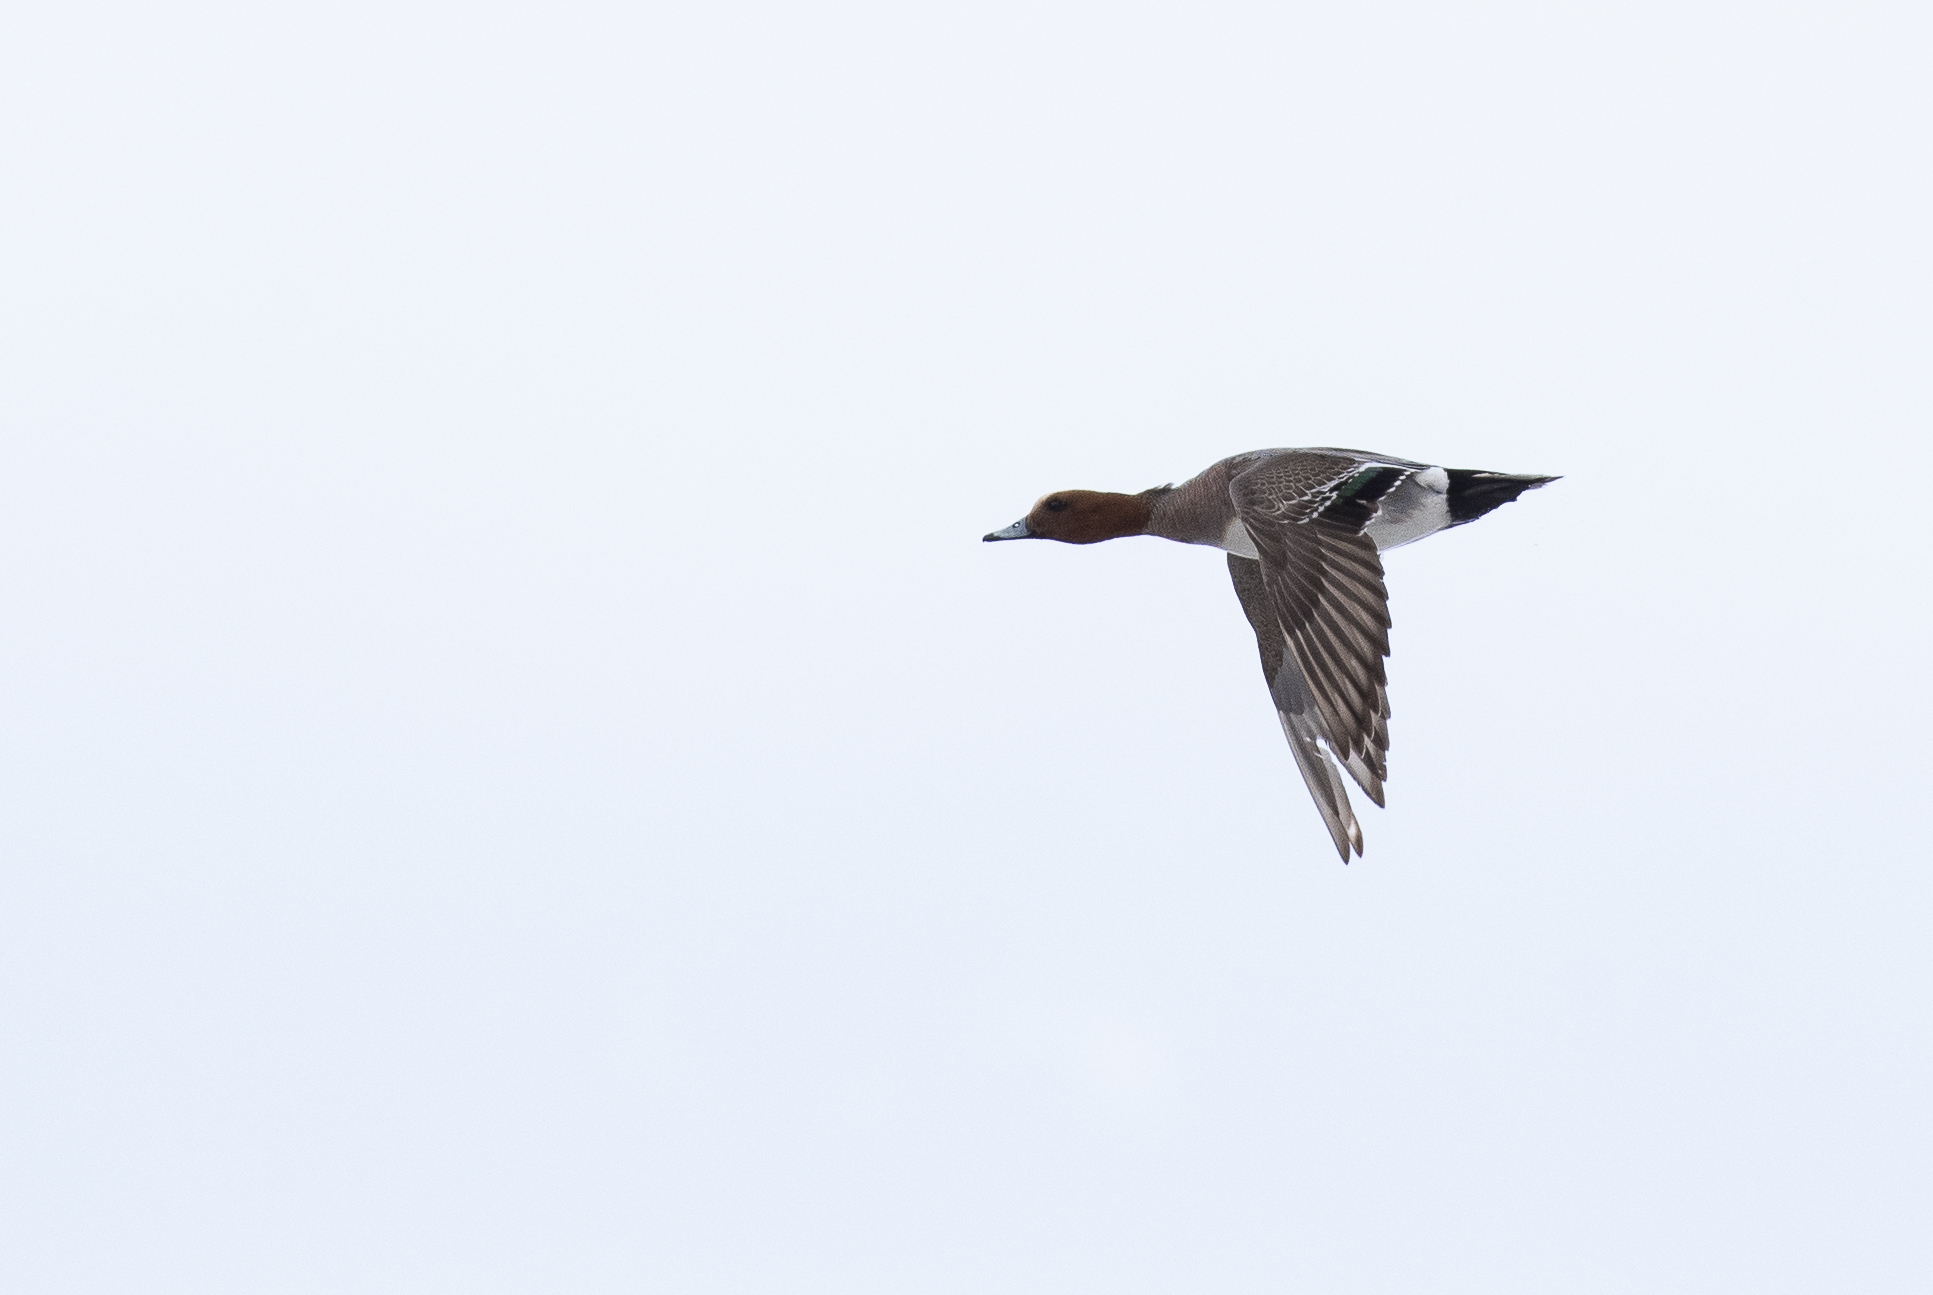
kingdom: Animalia
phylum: Chordata
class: Aves
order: Anseriformes
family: Anatidae
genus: Mareca
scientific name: Mareca penelope
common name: Eurasian wigeon
